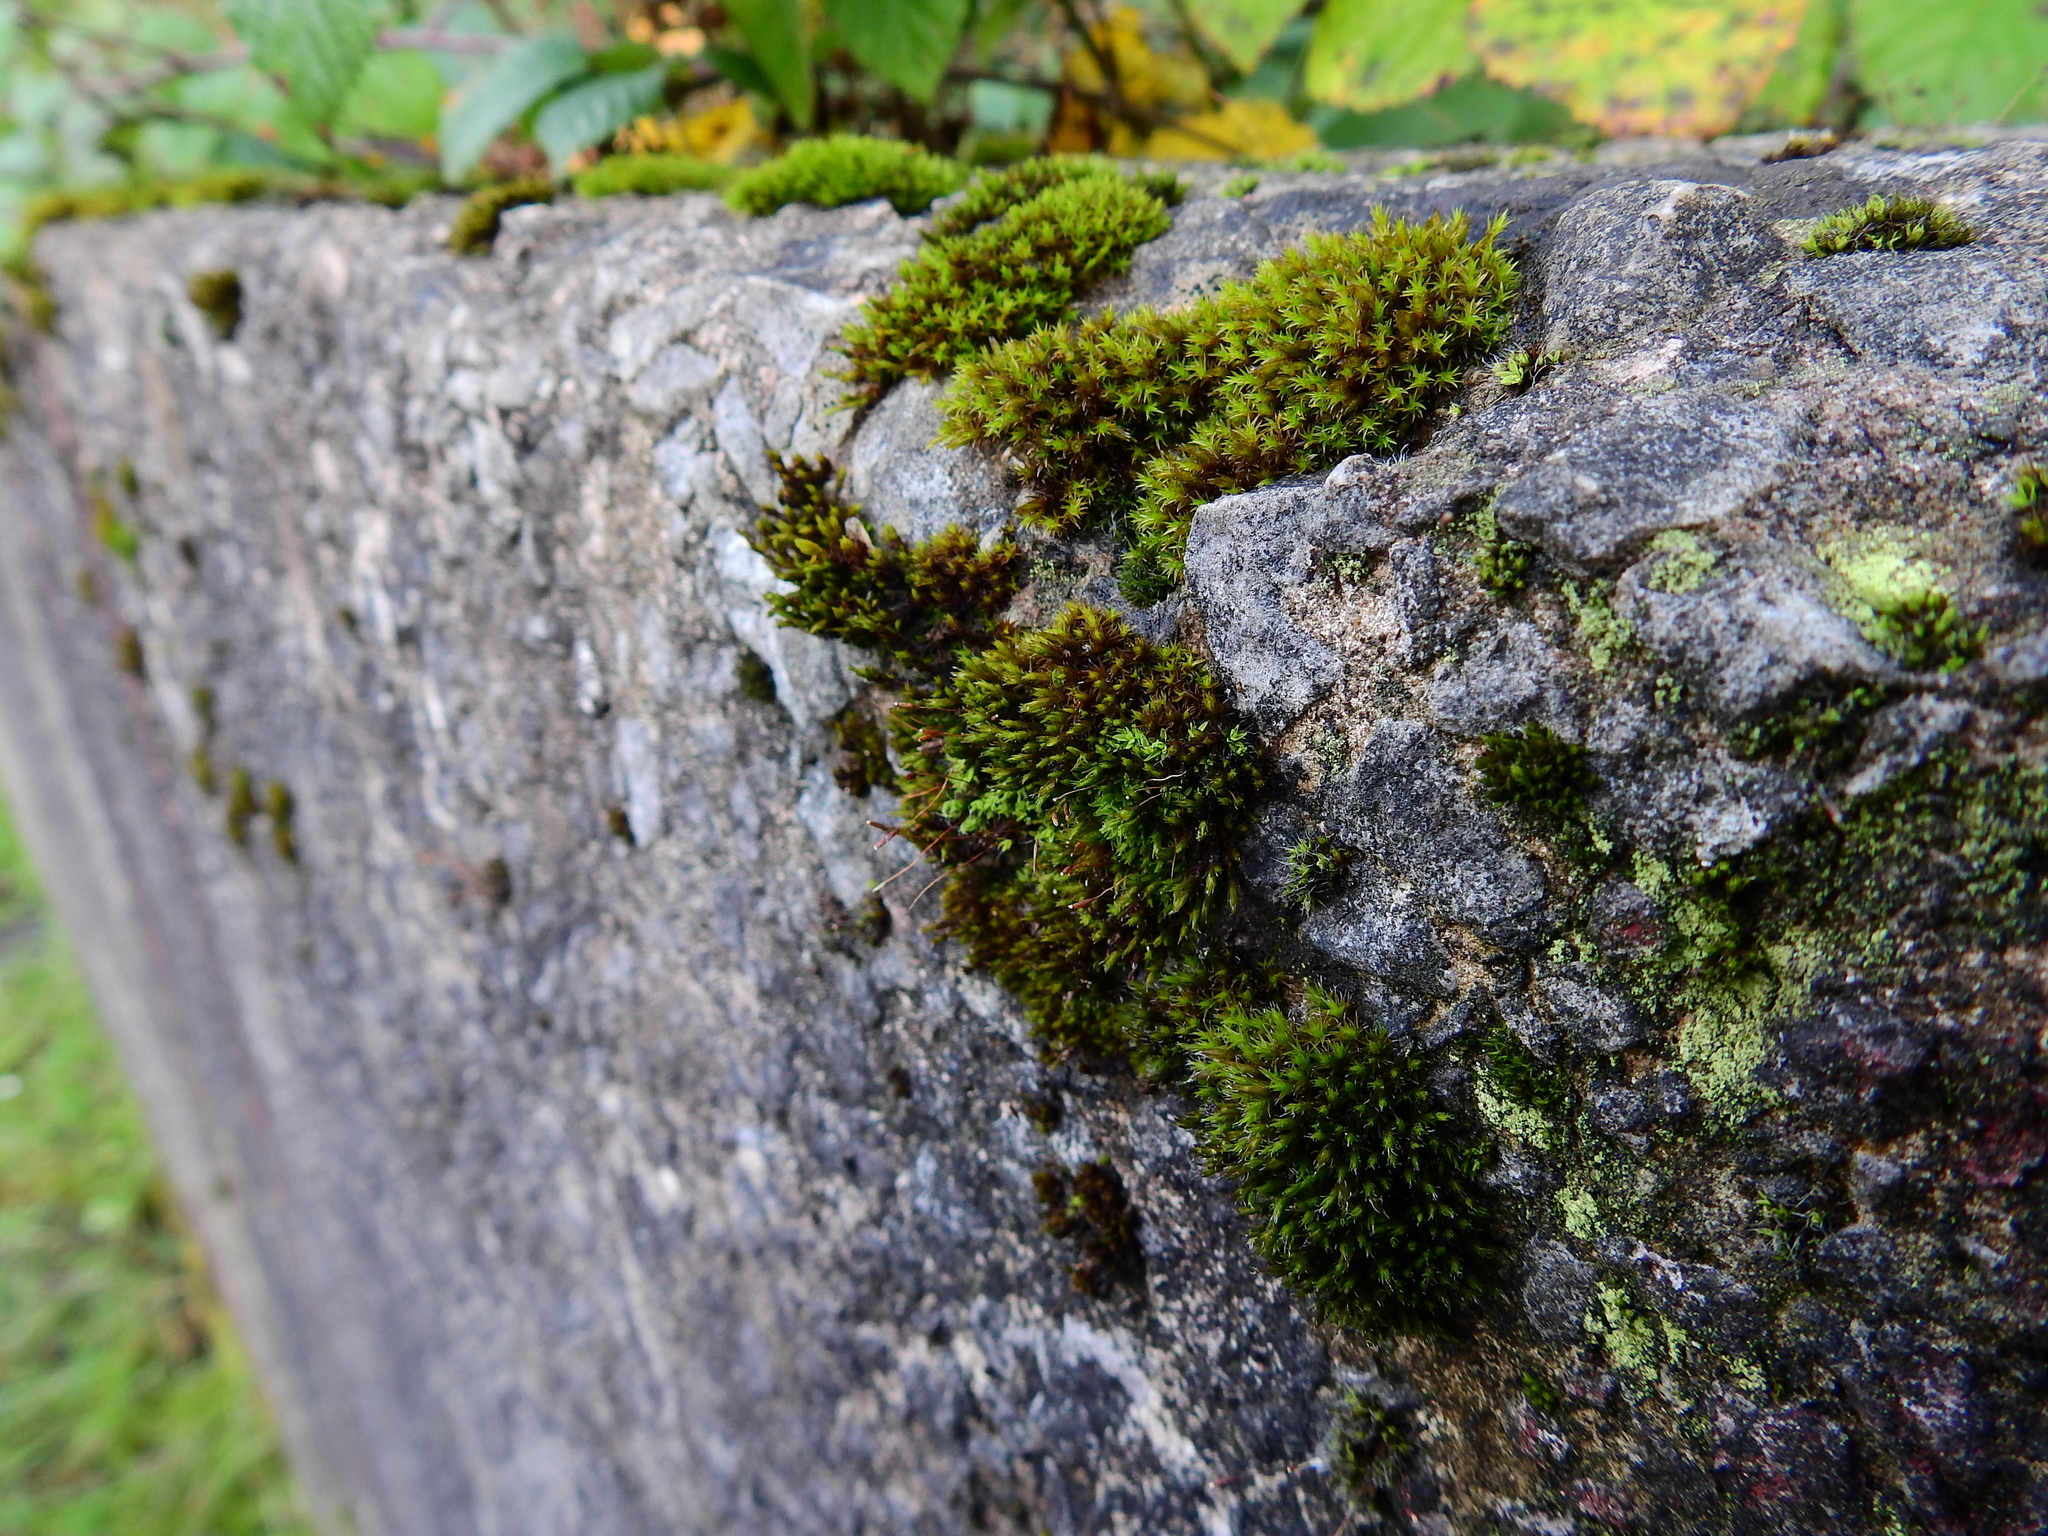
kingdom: Plantae
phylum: Bryophyta
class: Bryopsida
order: Orthotrichales
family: Orthotrichaceae
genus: Orthotrichum
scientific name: Orthotrichum anomalum
